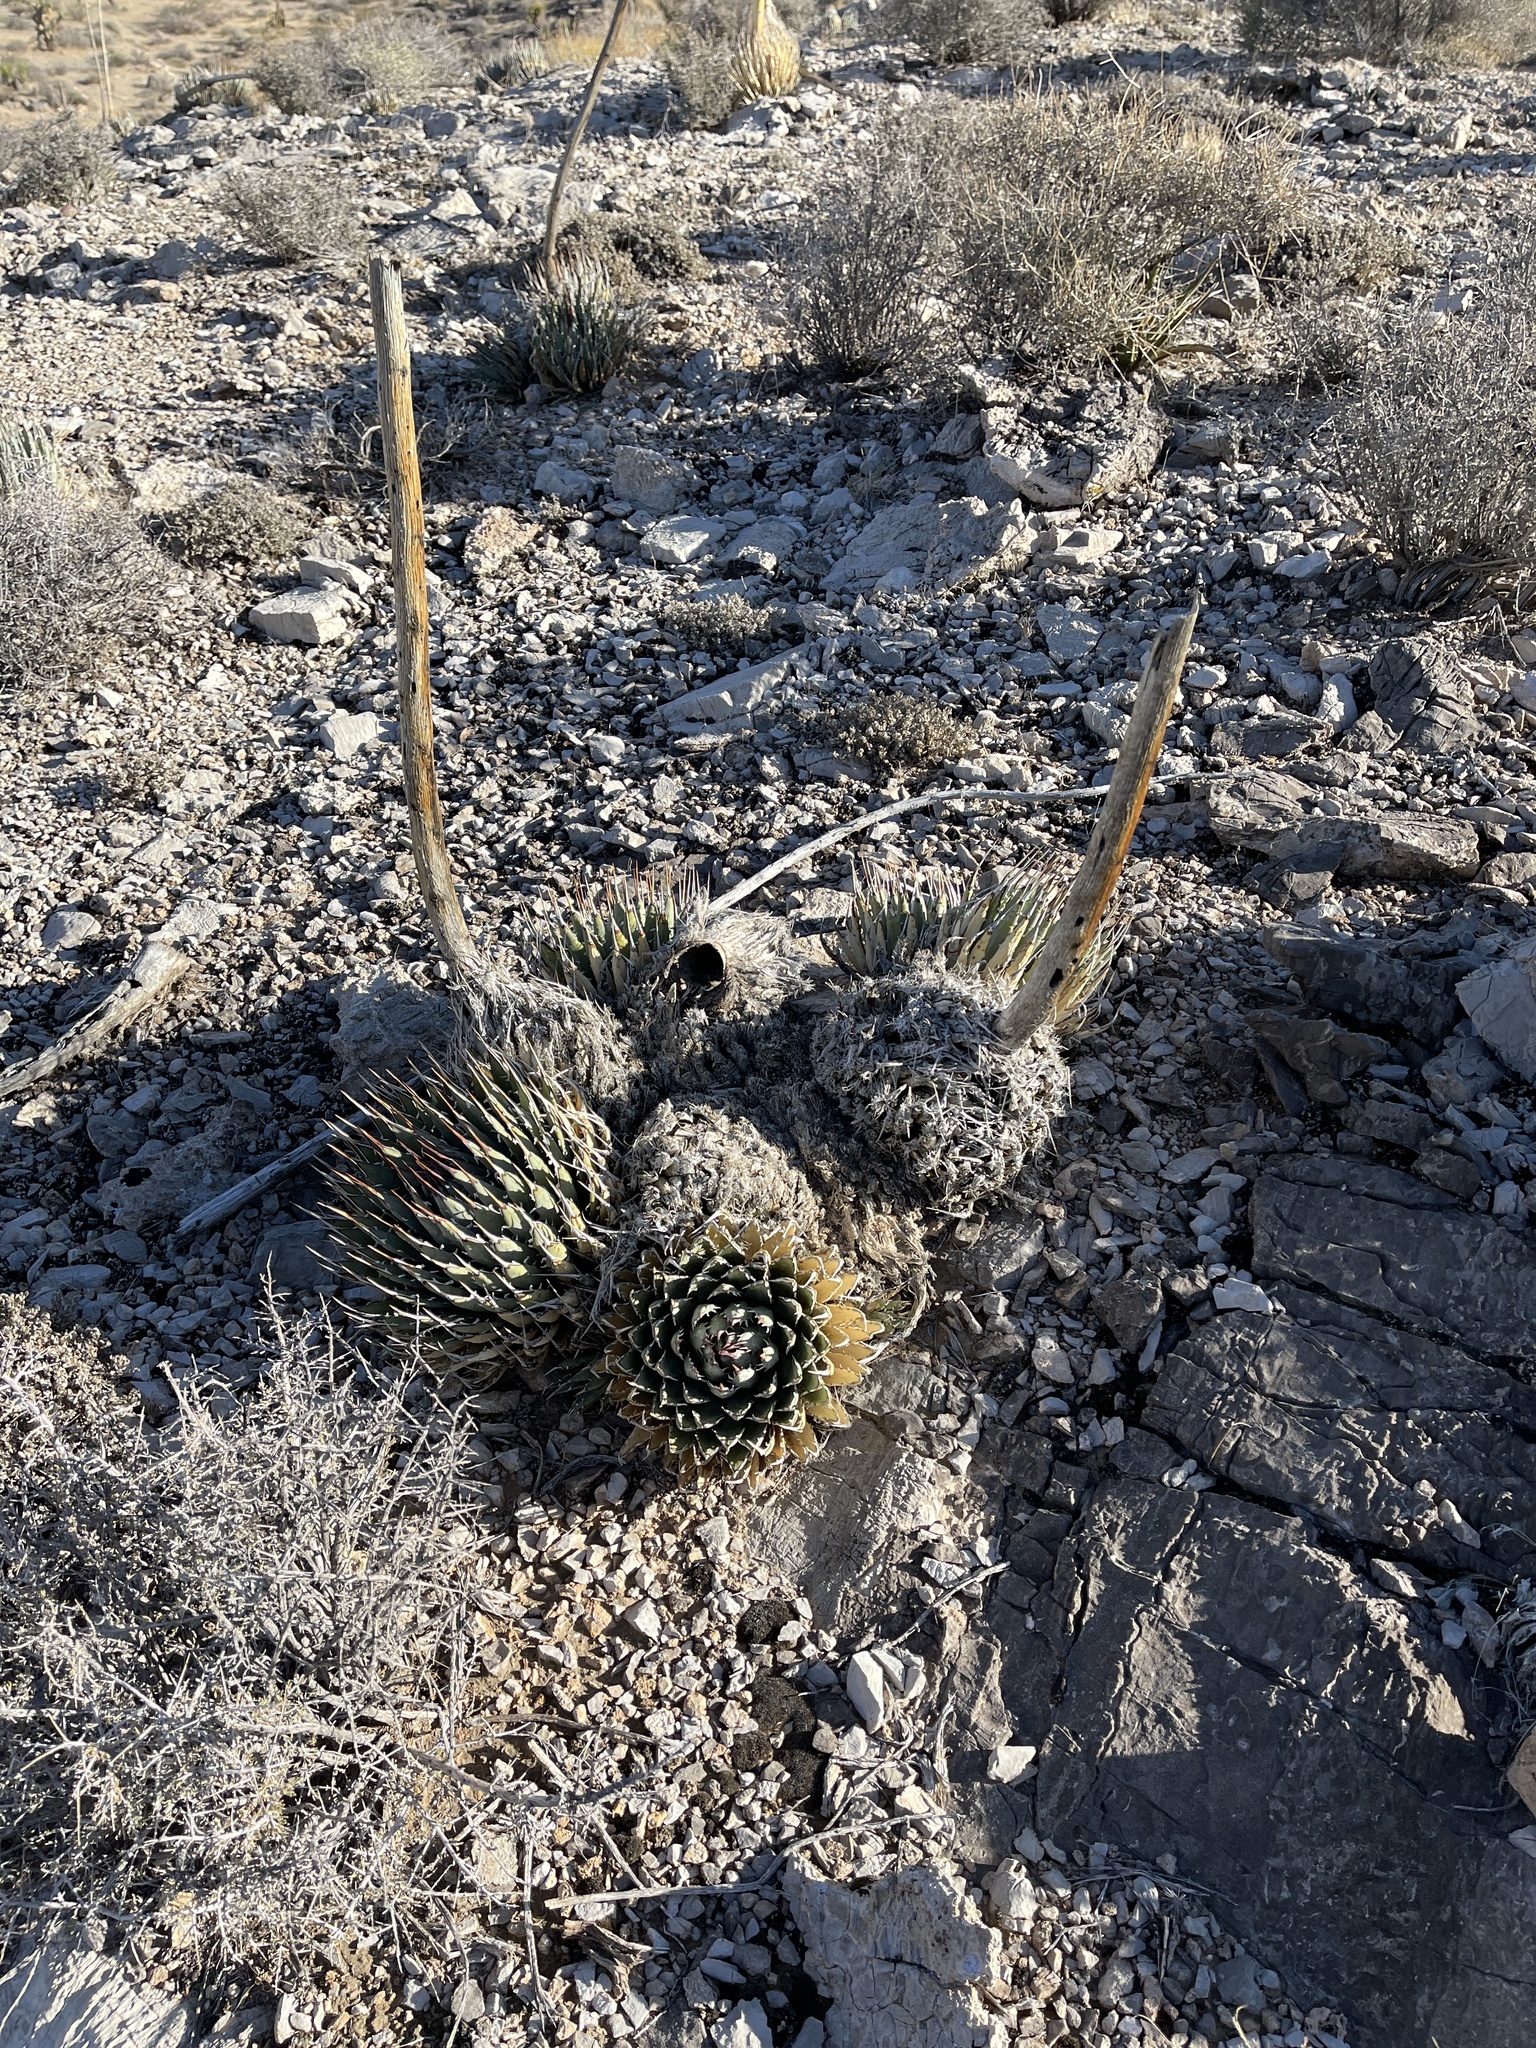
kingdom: Plantae
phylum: Tracheophyta
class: Liliopsida
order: Asparagales
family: Asparagaceae
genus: Agave
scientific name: Agave utahensis
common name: Utah agave
